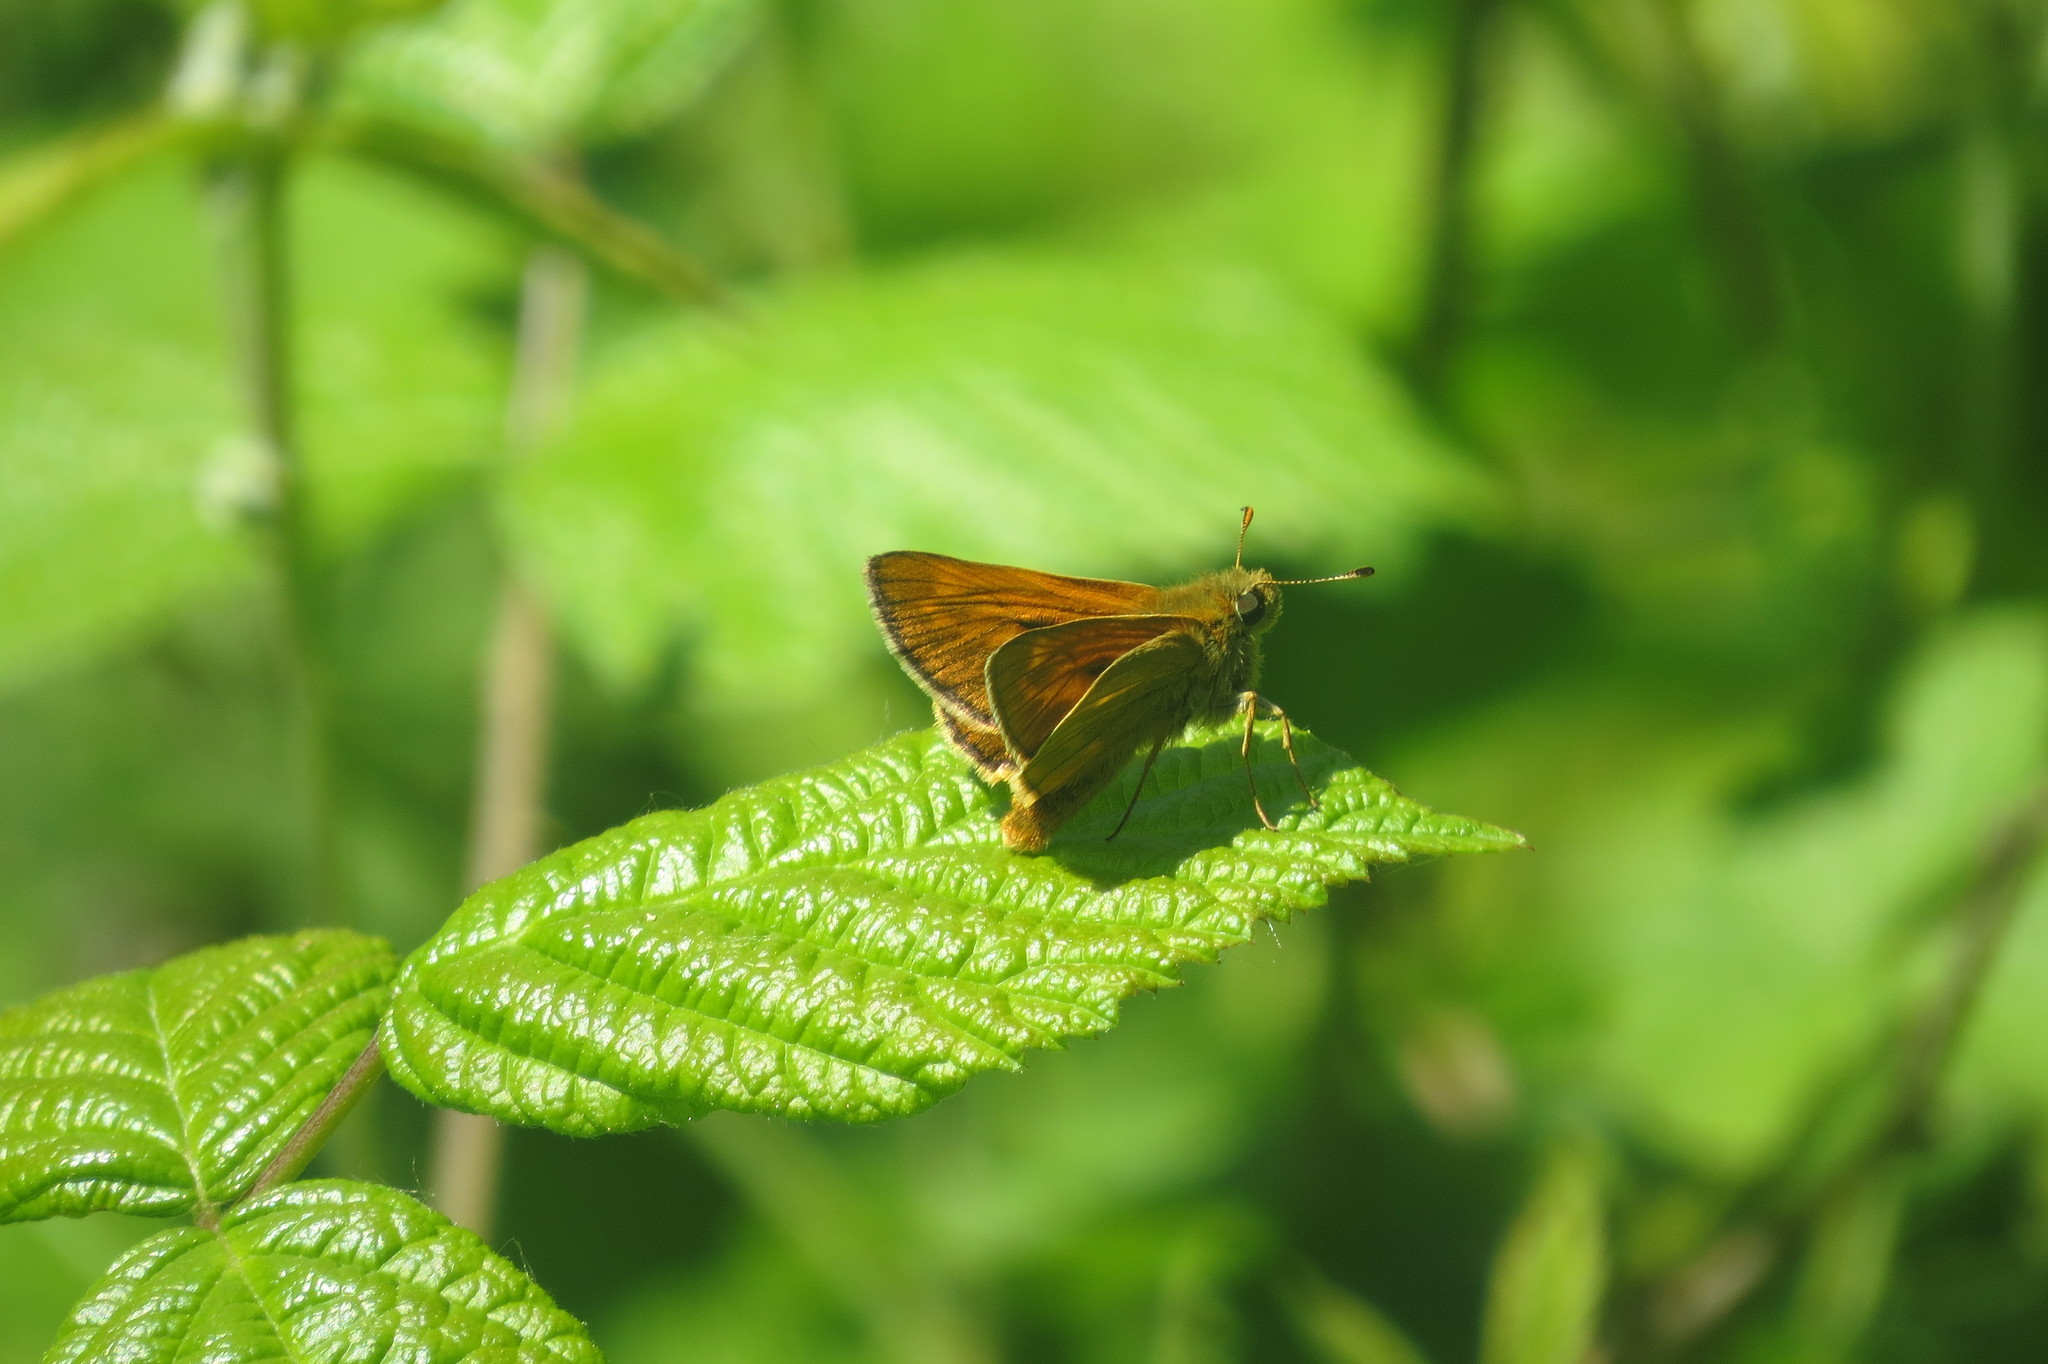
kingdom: Animalia
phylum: Arthropoda
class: Insecta
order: Lepidoptera
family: Hesperiidae
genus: Ochlodes
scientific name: Ochlodes venata
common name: Large skipper
